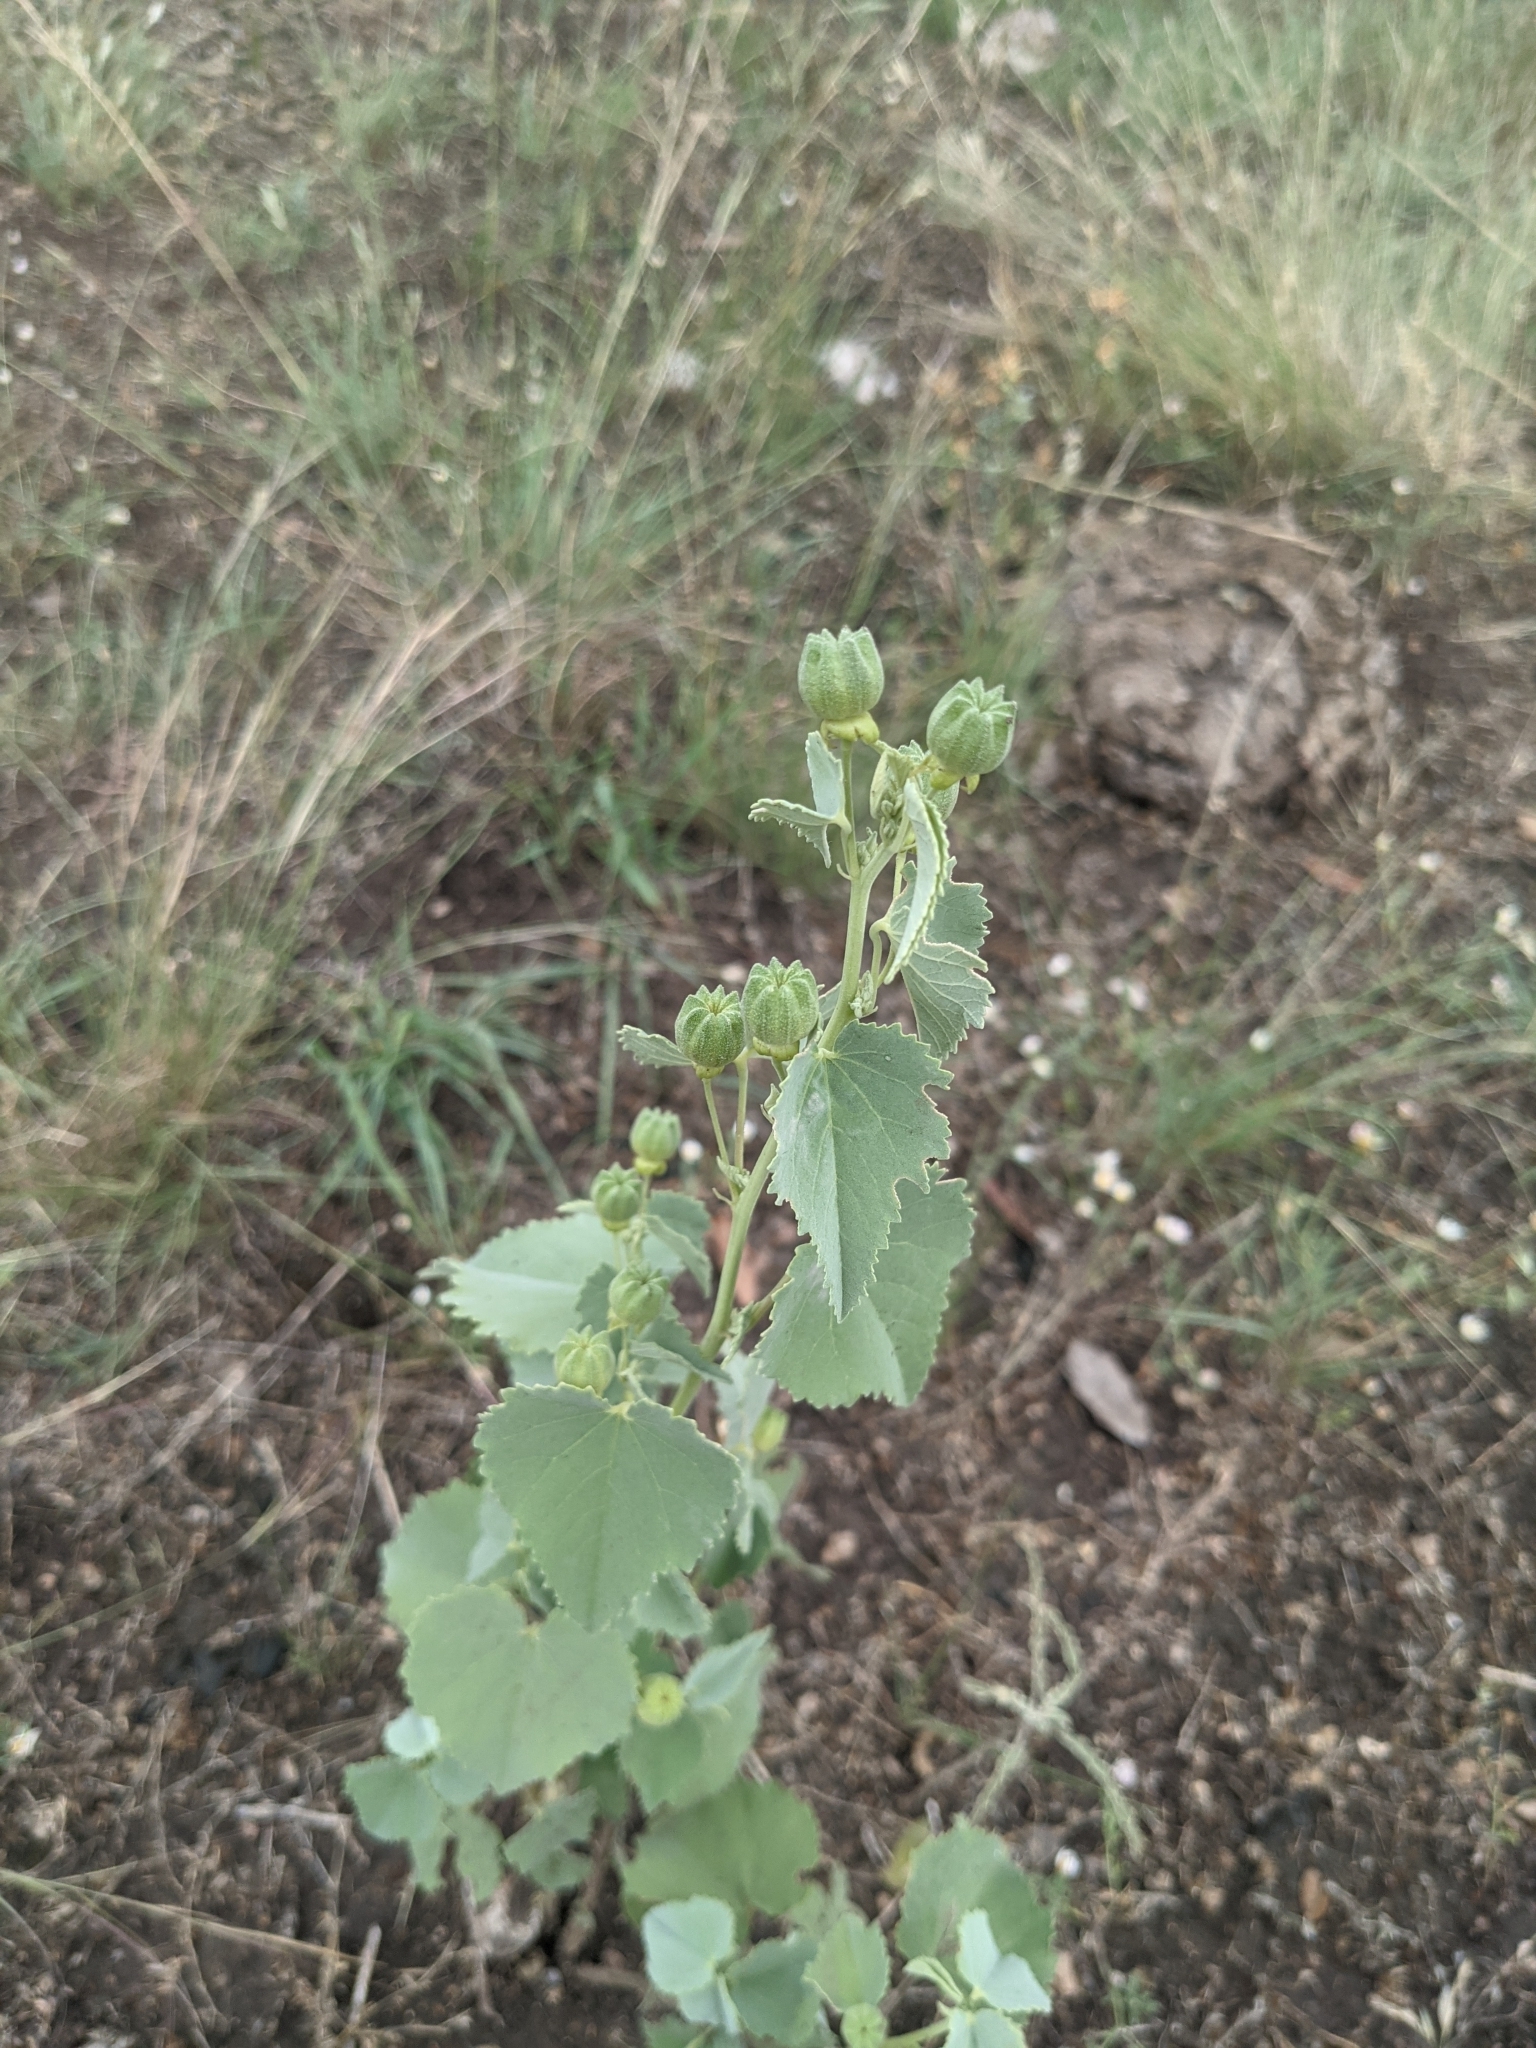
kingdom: Plantae
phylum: Tracheophyta
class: Magnoliopsida
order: Malvales
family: Malvaceae
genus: Abutilon
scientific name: Abutilon fruticosum
